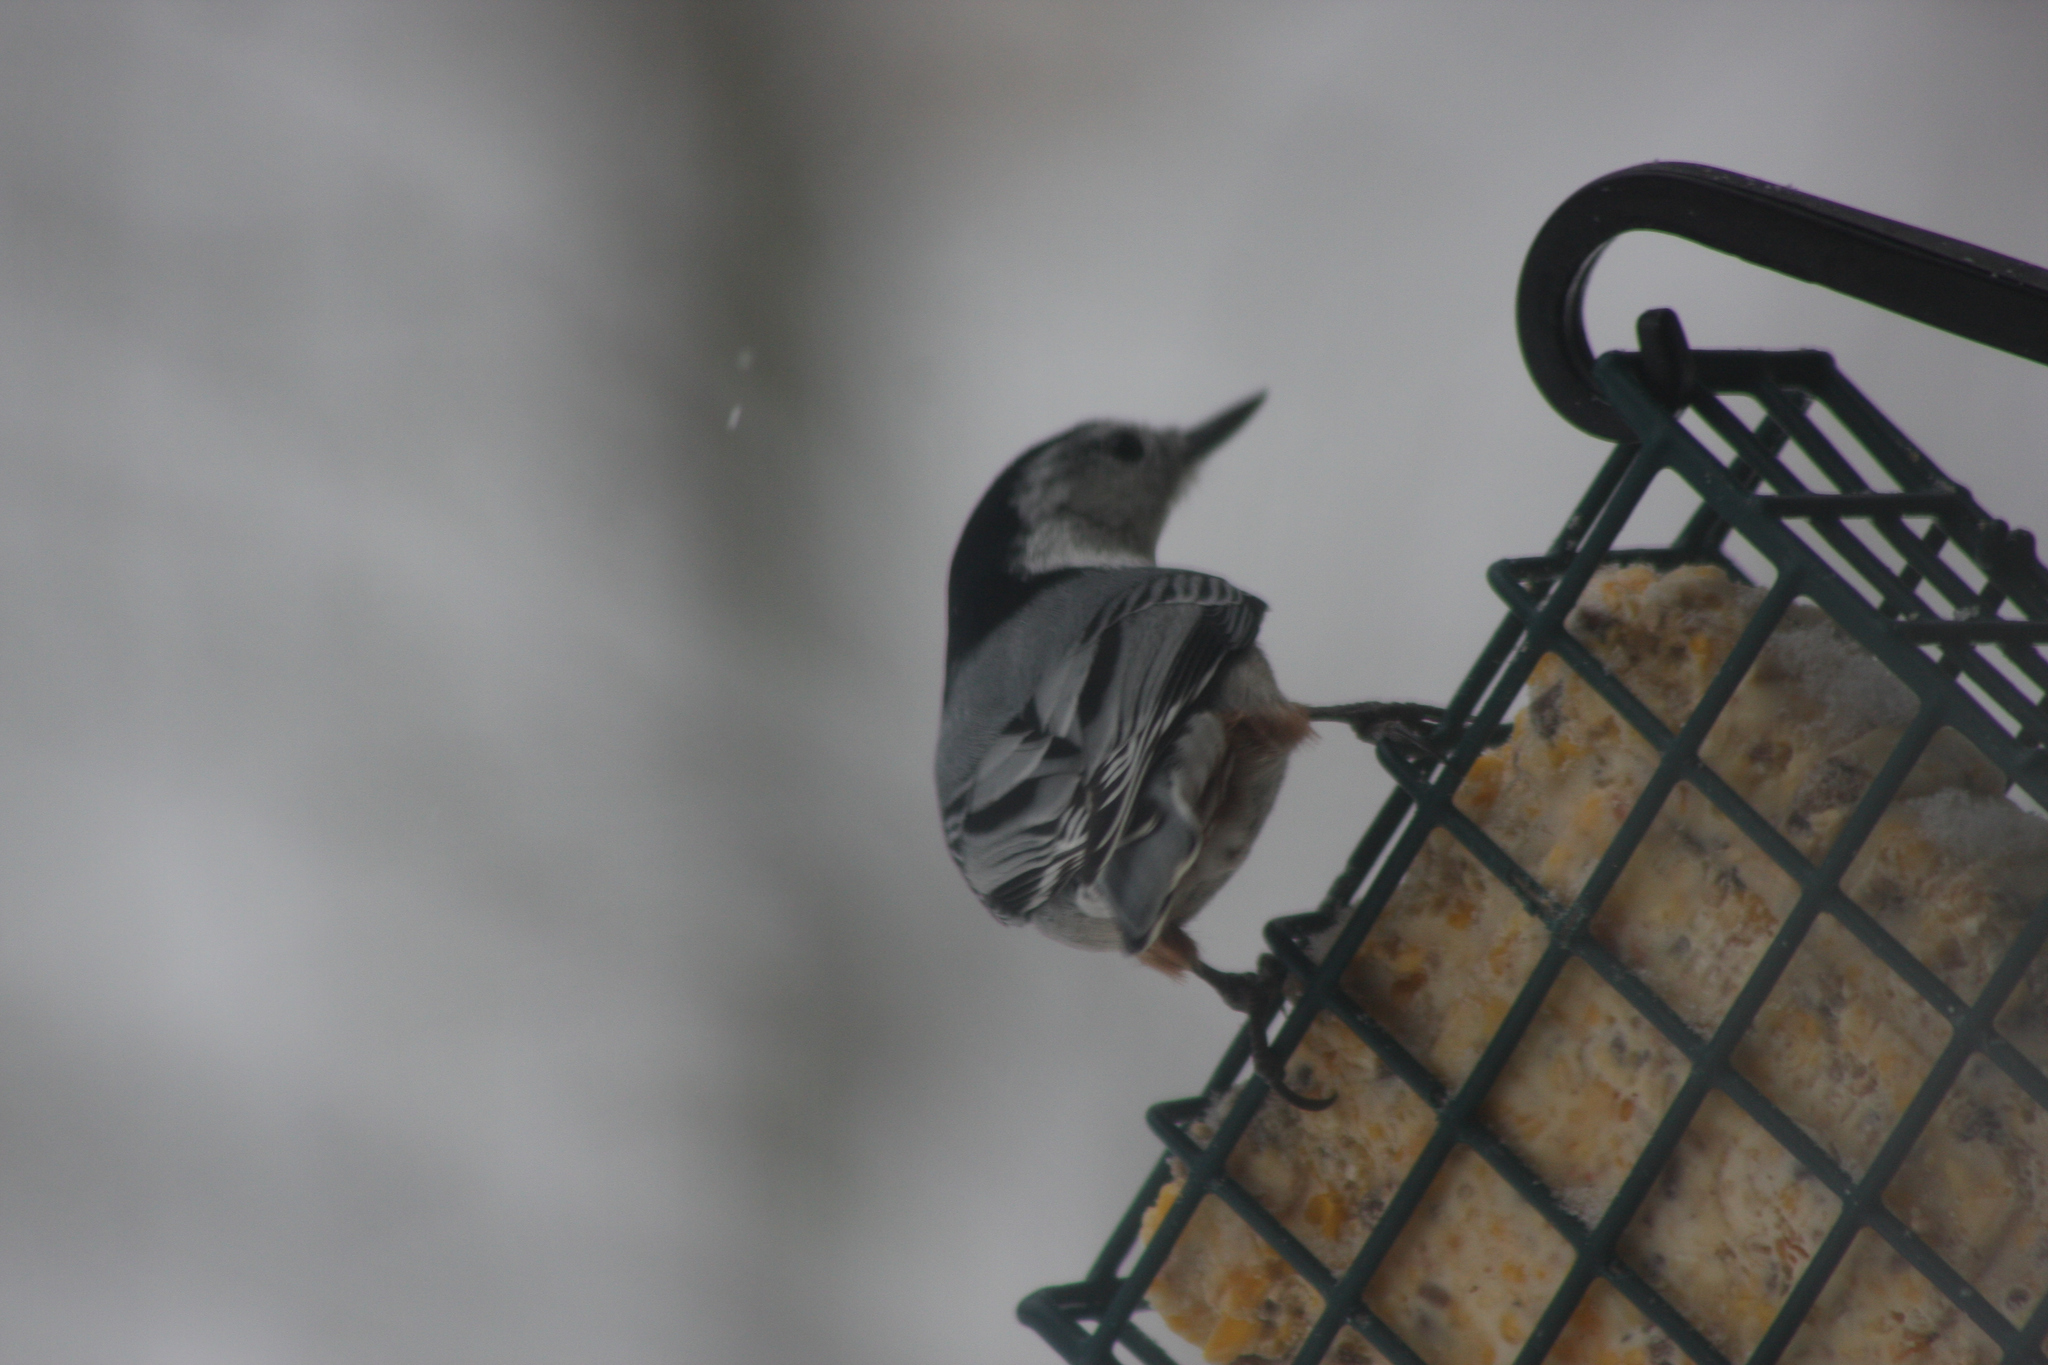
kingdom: Animalia
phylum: Chordata
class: Aves
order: Passeriformes
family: Sittidae
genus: Sitta
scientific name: Sitta carolinensis
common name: White-breasted nuthatch
